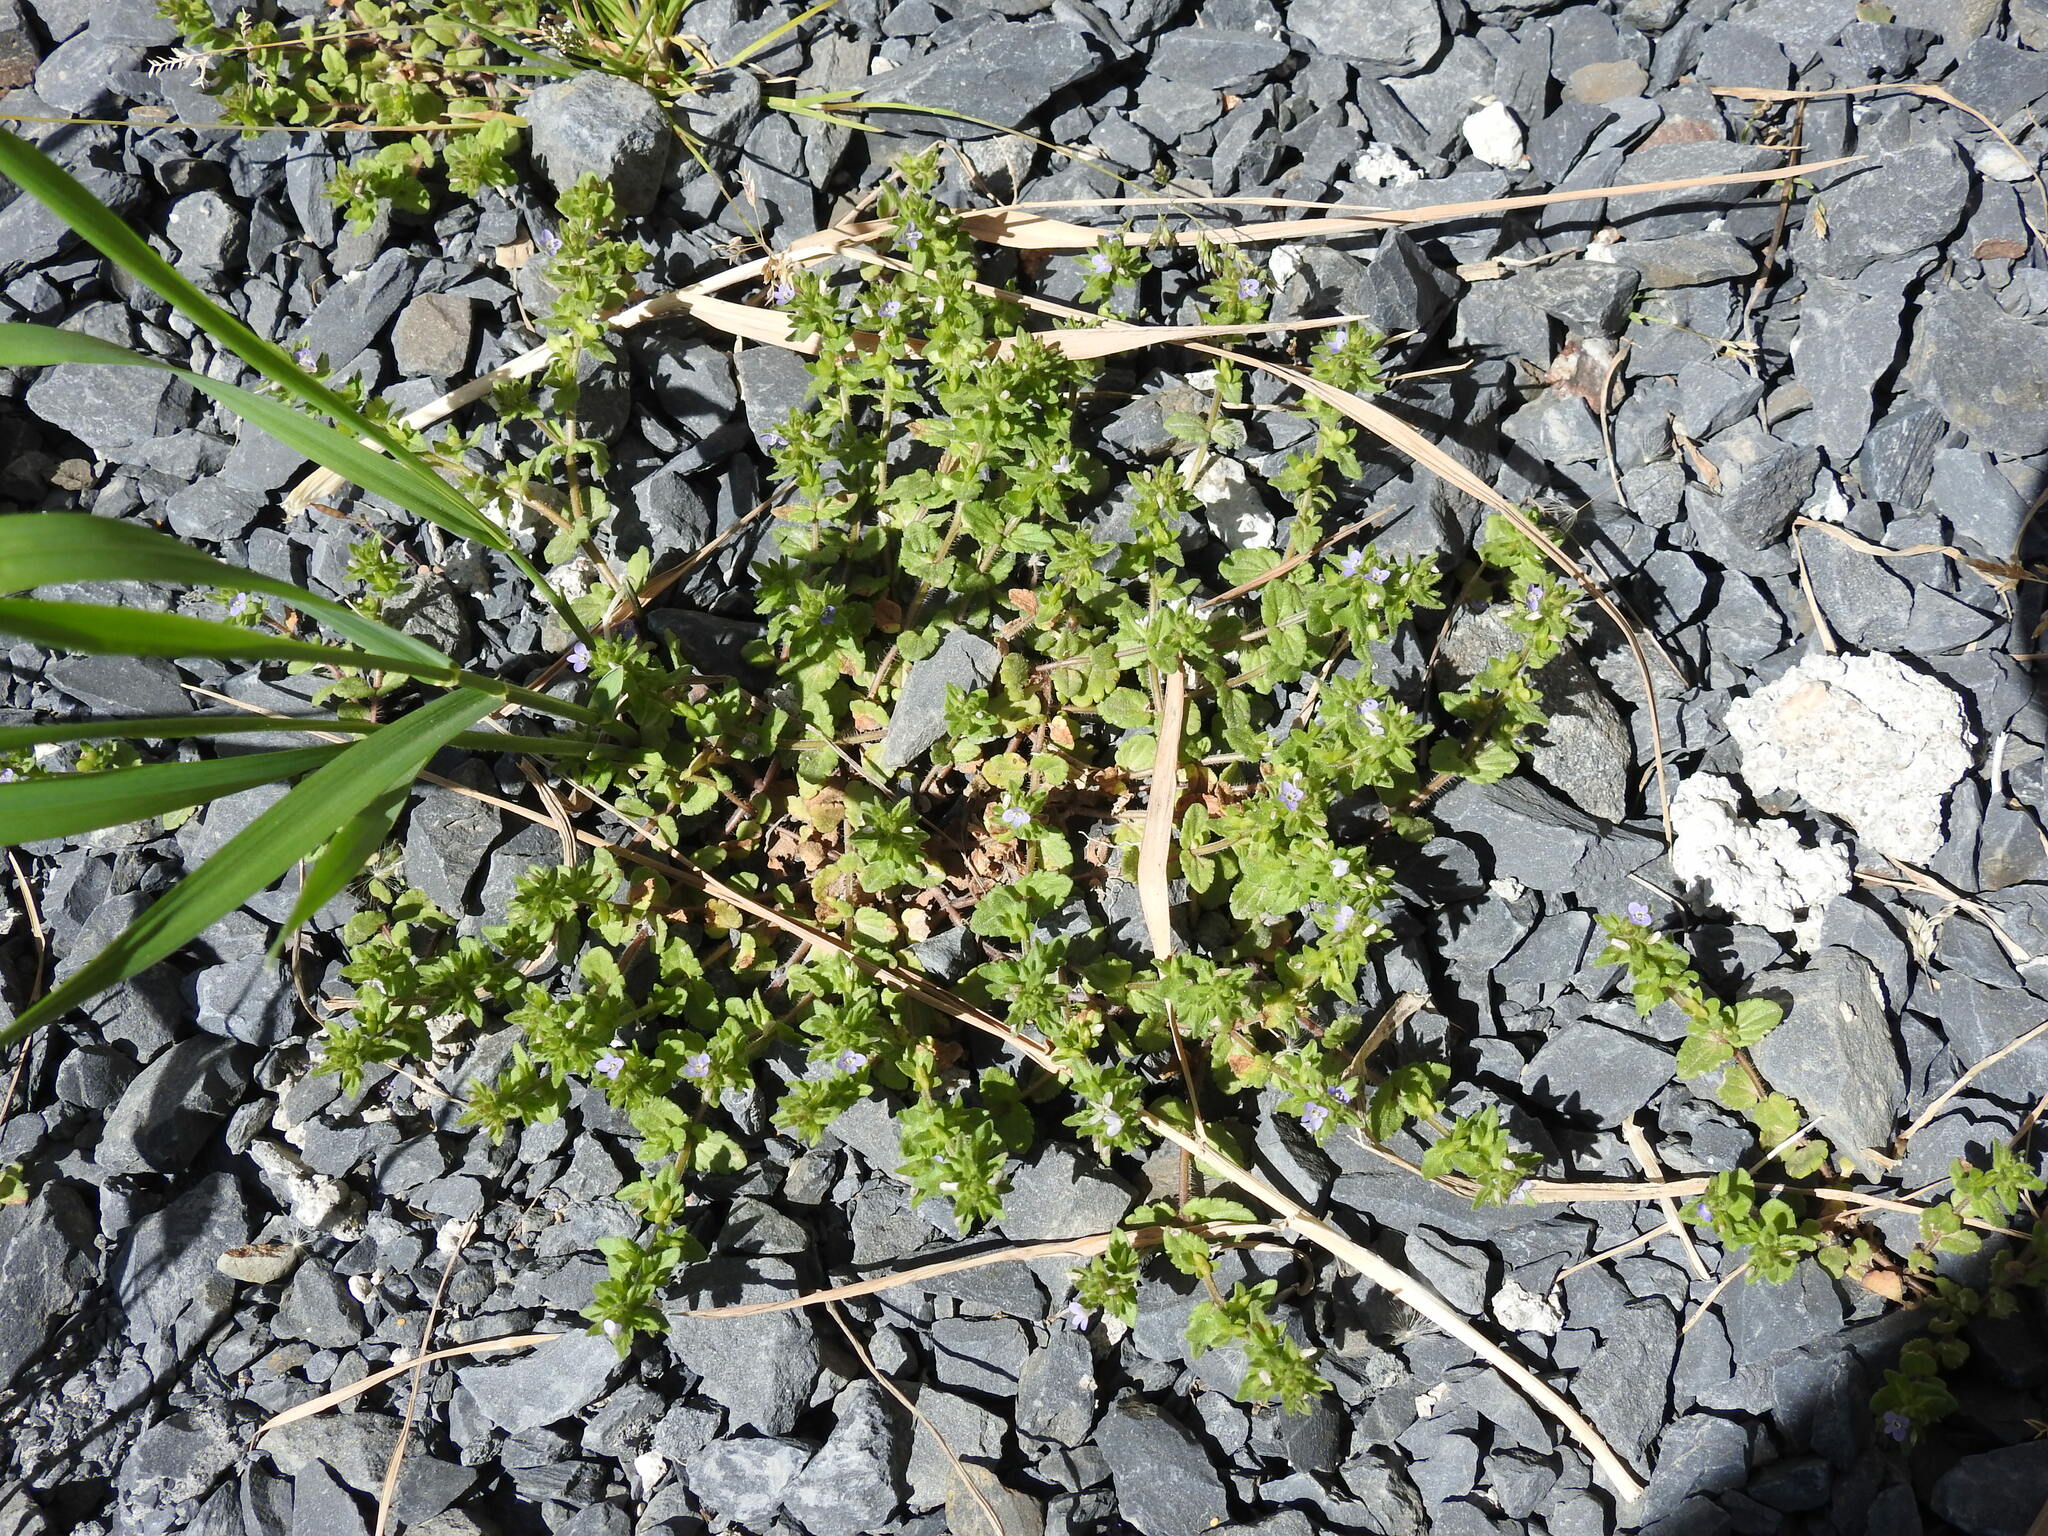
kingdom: Plantae
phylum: Tracheophyta
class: Magnoliopsida
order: Lamiales
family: Plantaginaceae
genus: Veronica
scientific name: Veronica arvensis
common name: Corn speedwell
